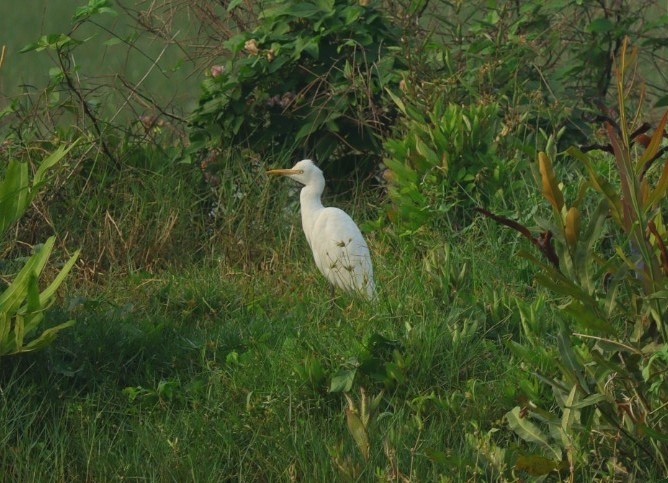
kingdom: Animalia
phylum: Chordata
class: Aves
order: Pelecaniformes
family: Ardeidae
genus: Bubulcus
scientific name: Bubulcus coromandus
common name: Eastern cattle egret
